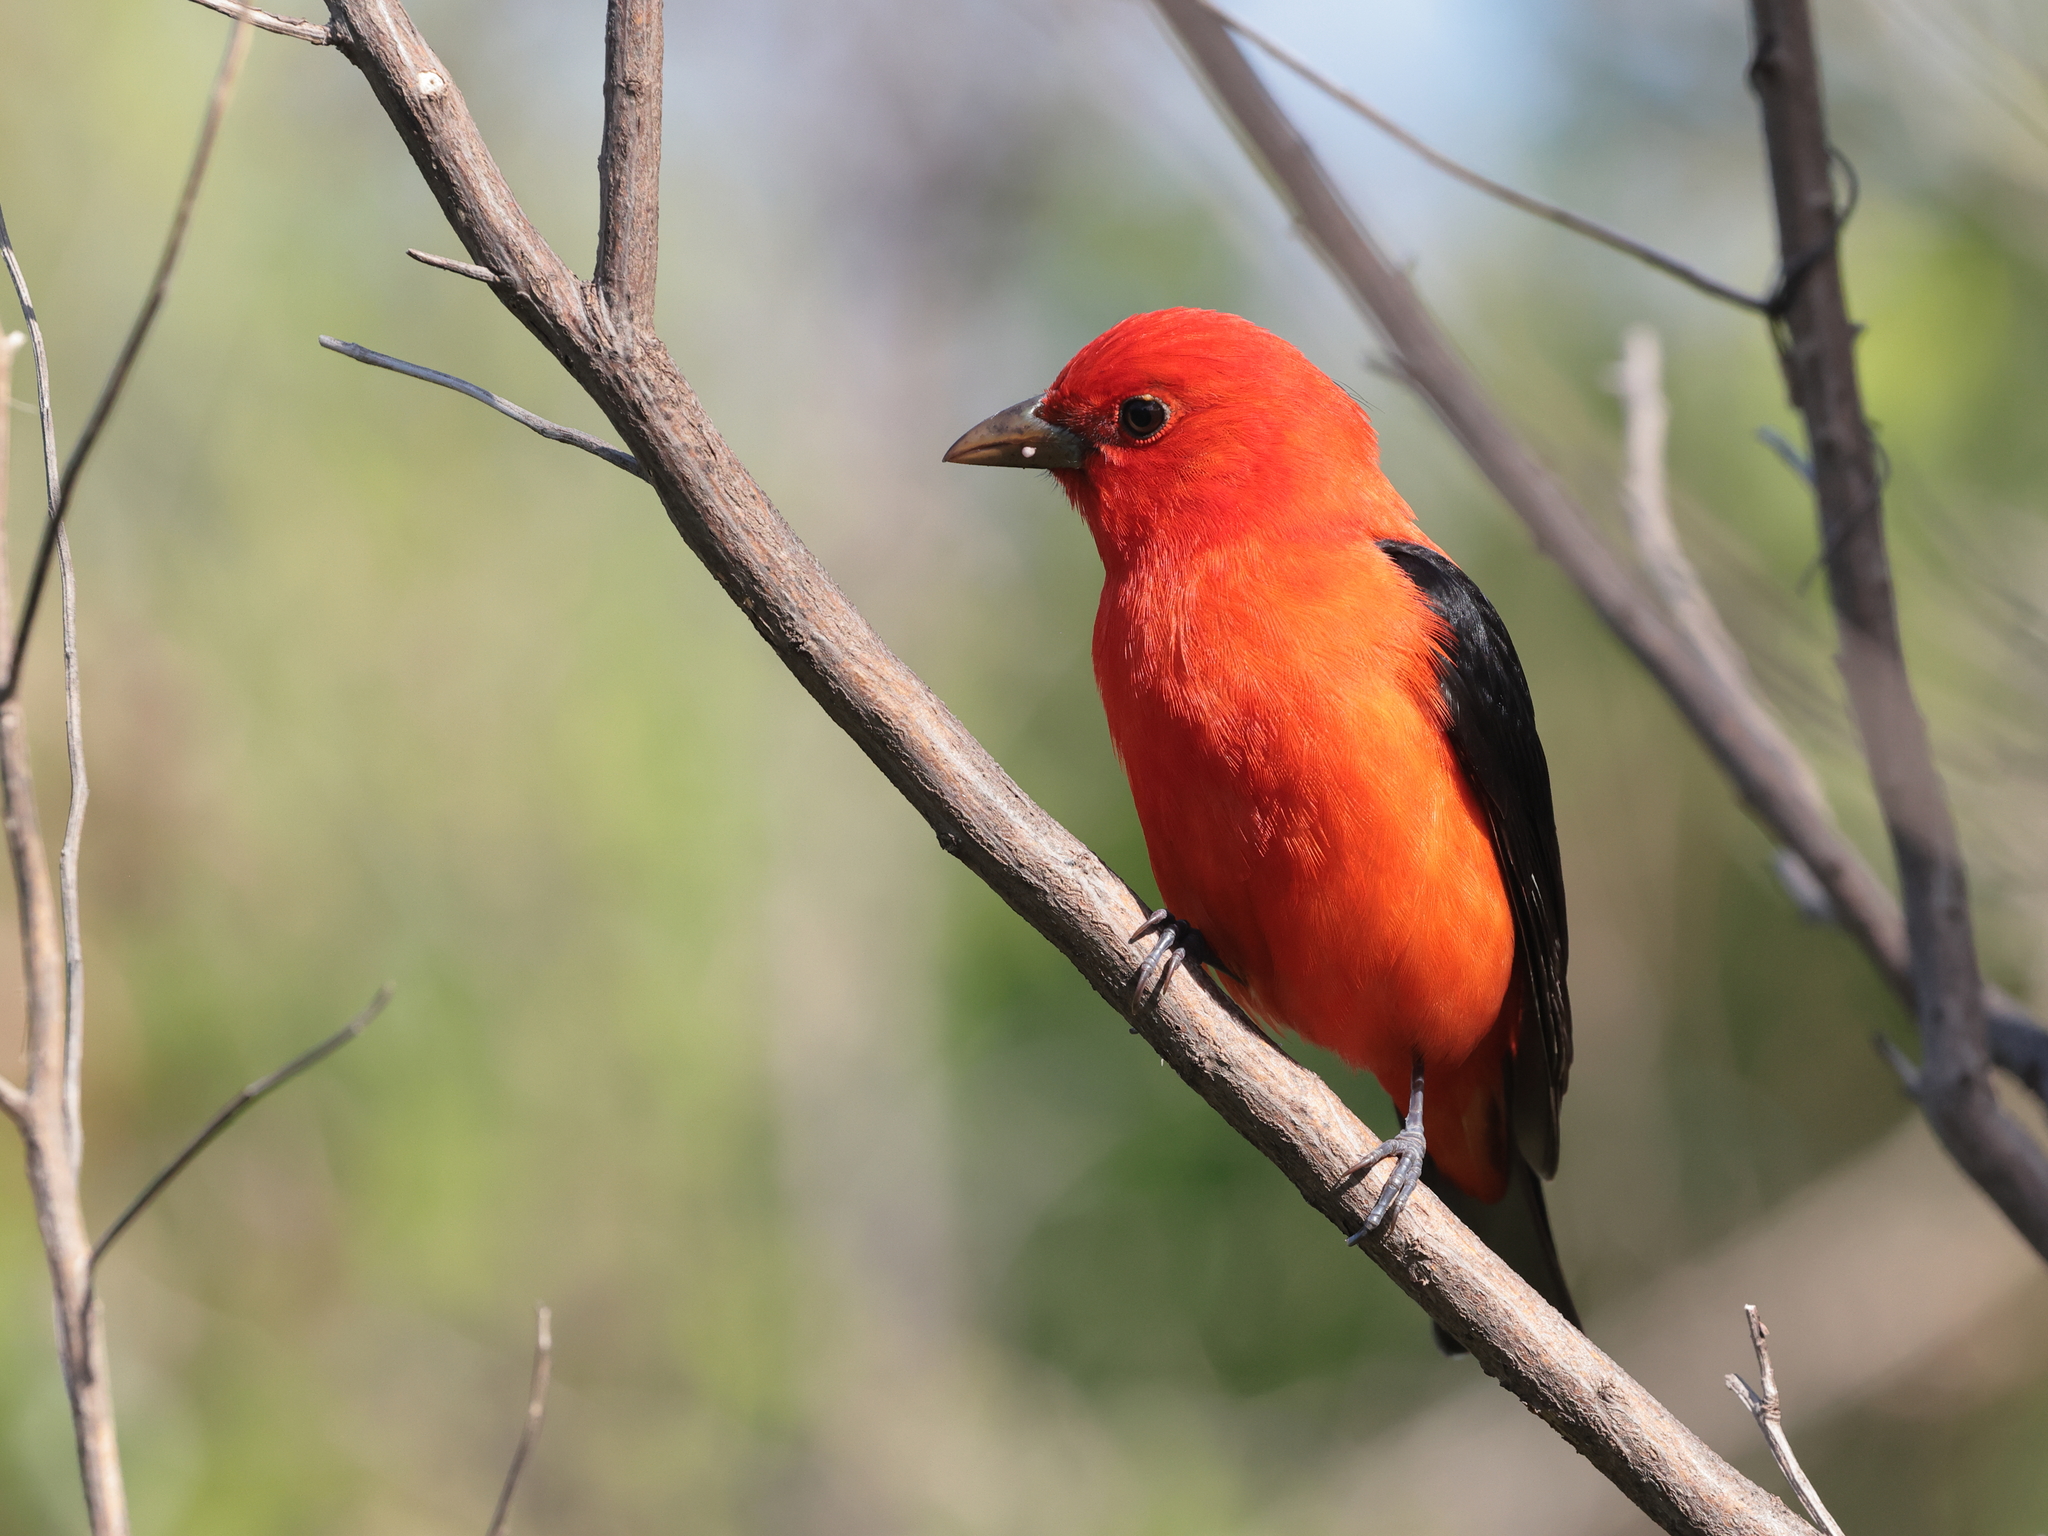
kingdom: Animalia
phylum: Chordata
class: Aves
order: Passeriformes
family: Cardinalidae
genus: Piranga
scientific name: Piranga olivacea
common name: Scarlet tanager
